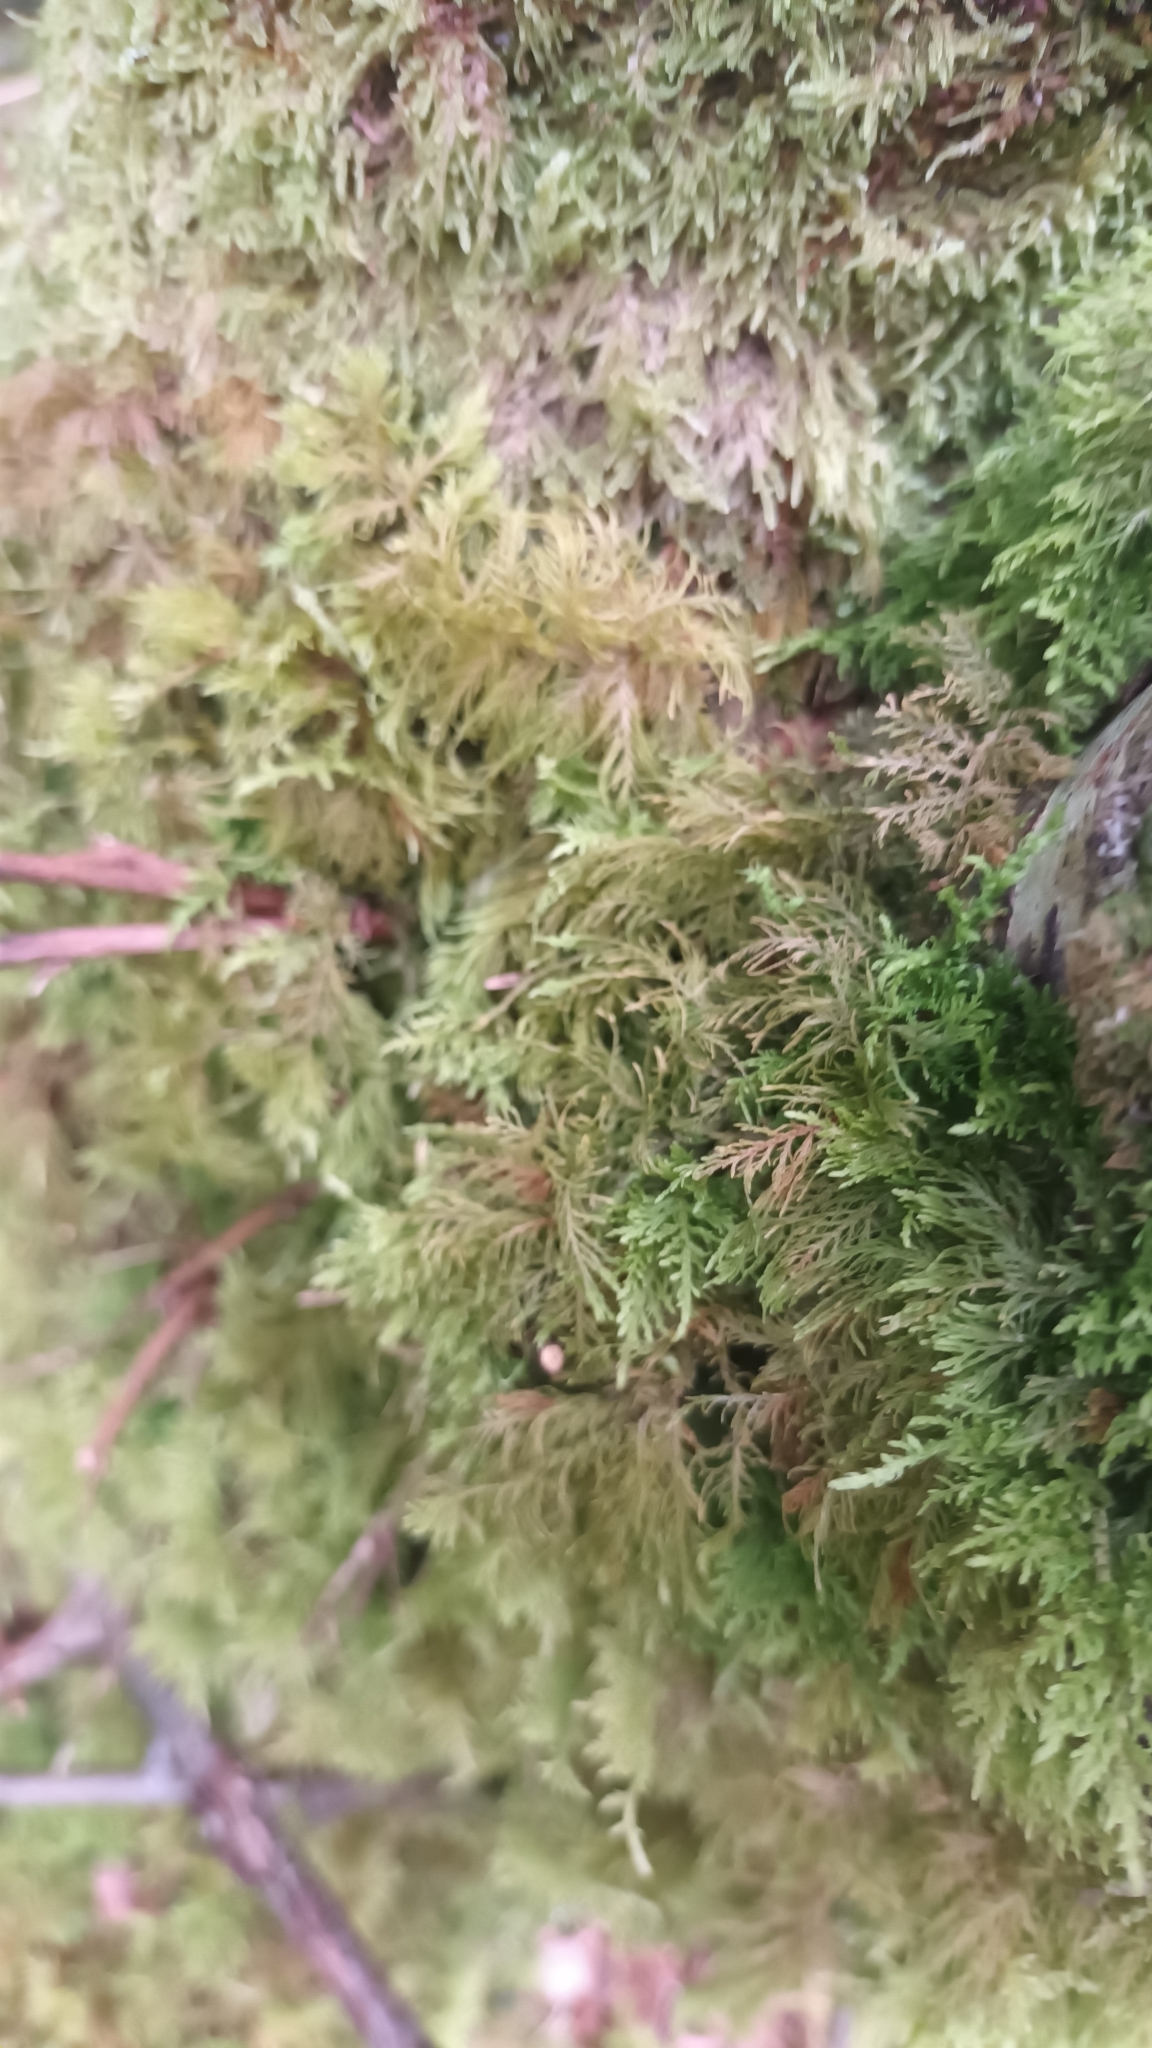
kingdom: Plantae
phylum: Bryophyta
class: Bryopsida
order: Hypnales
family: Thuidiaceae
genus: Thuidium
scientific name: Thuidium tamariscinum
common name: Common tamarisk-moss
